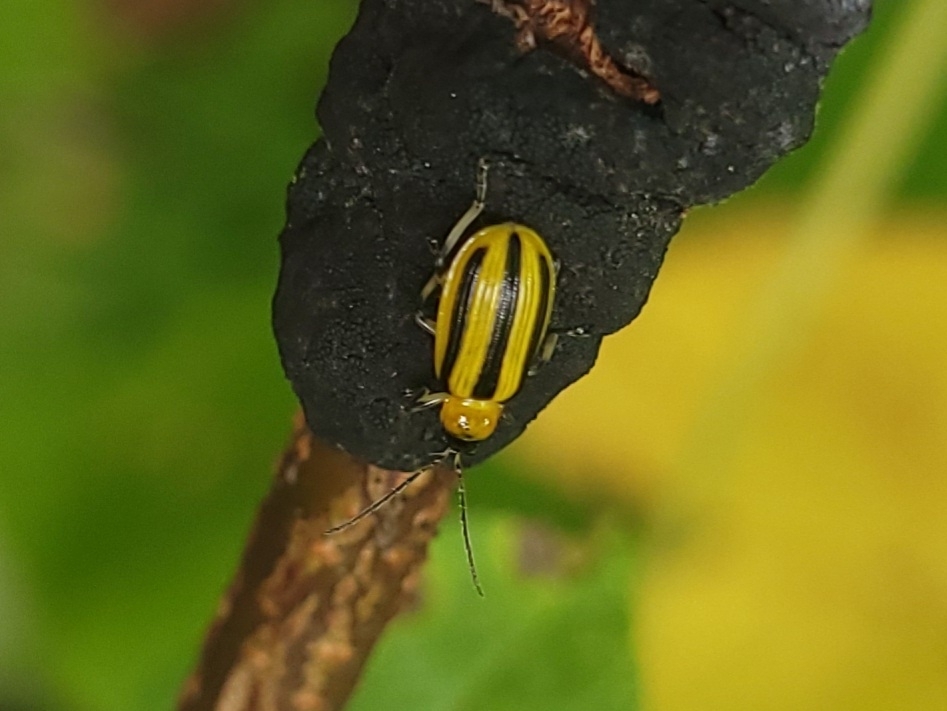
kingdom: Animalia
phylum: Arthropoda
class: Insecta
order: Coleoptera
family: Chrysomelidae
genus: Acalymma
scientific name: Acalymma vittatum
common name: Striped cucumber beetle
